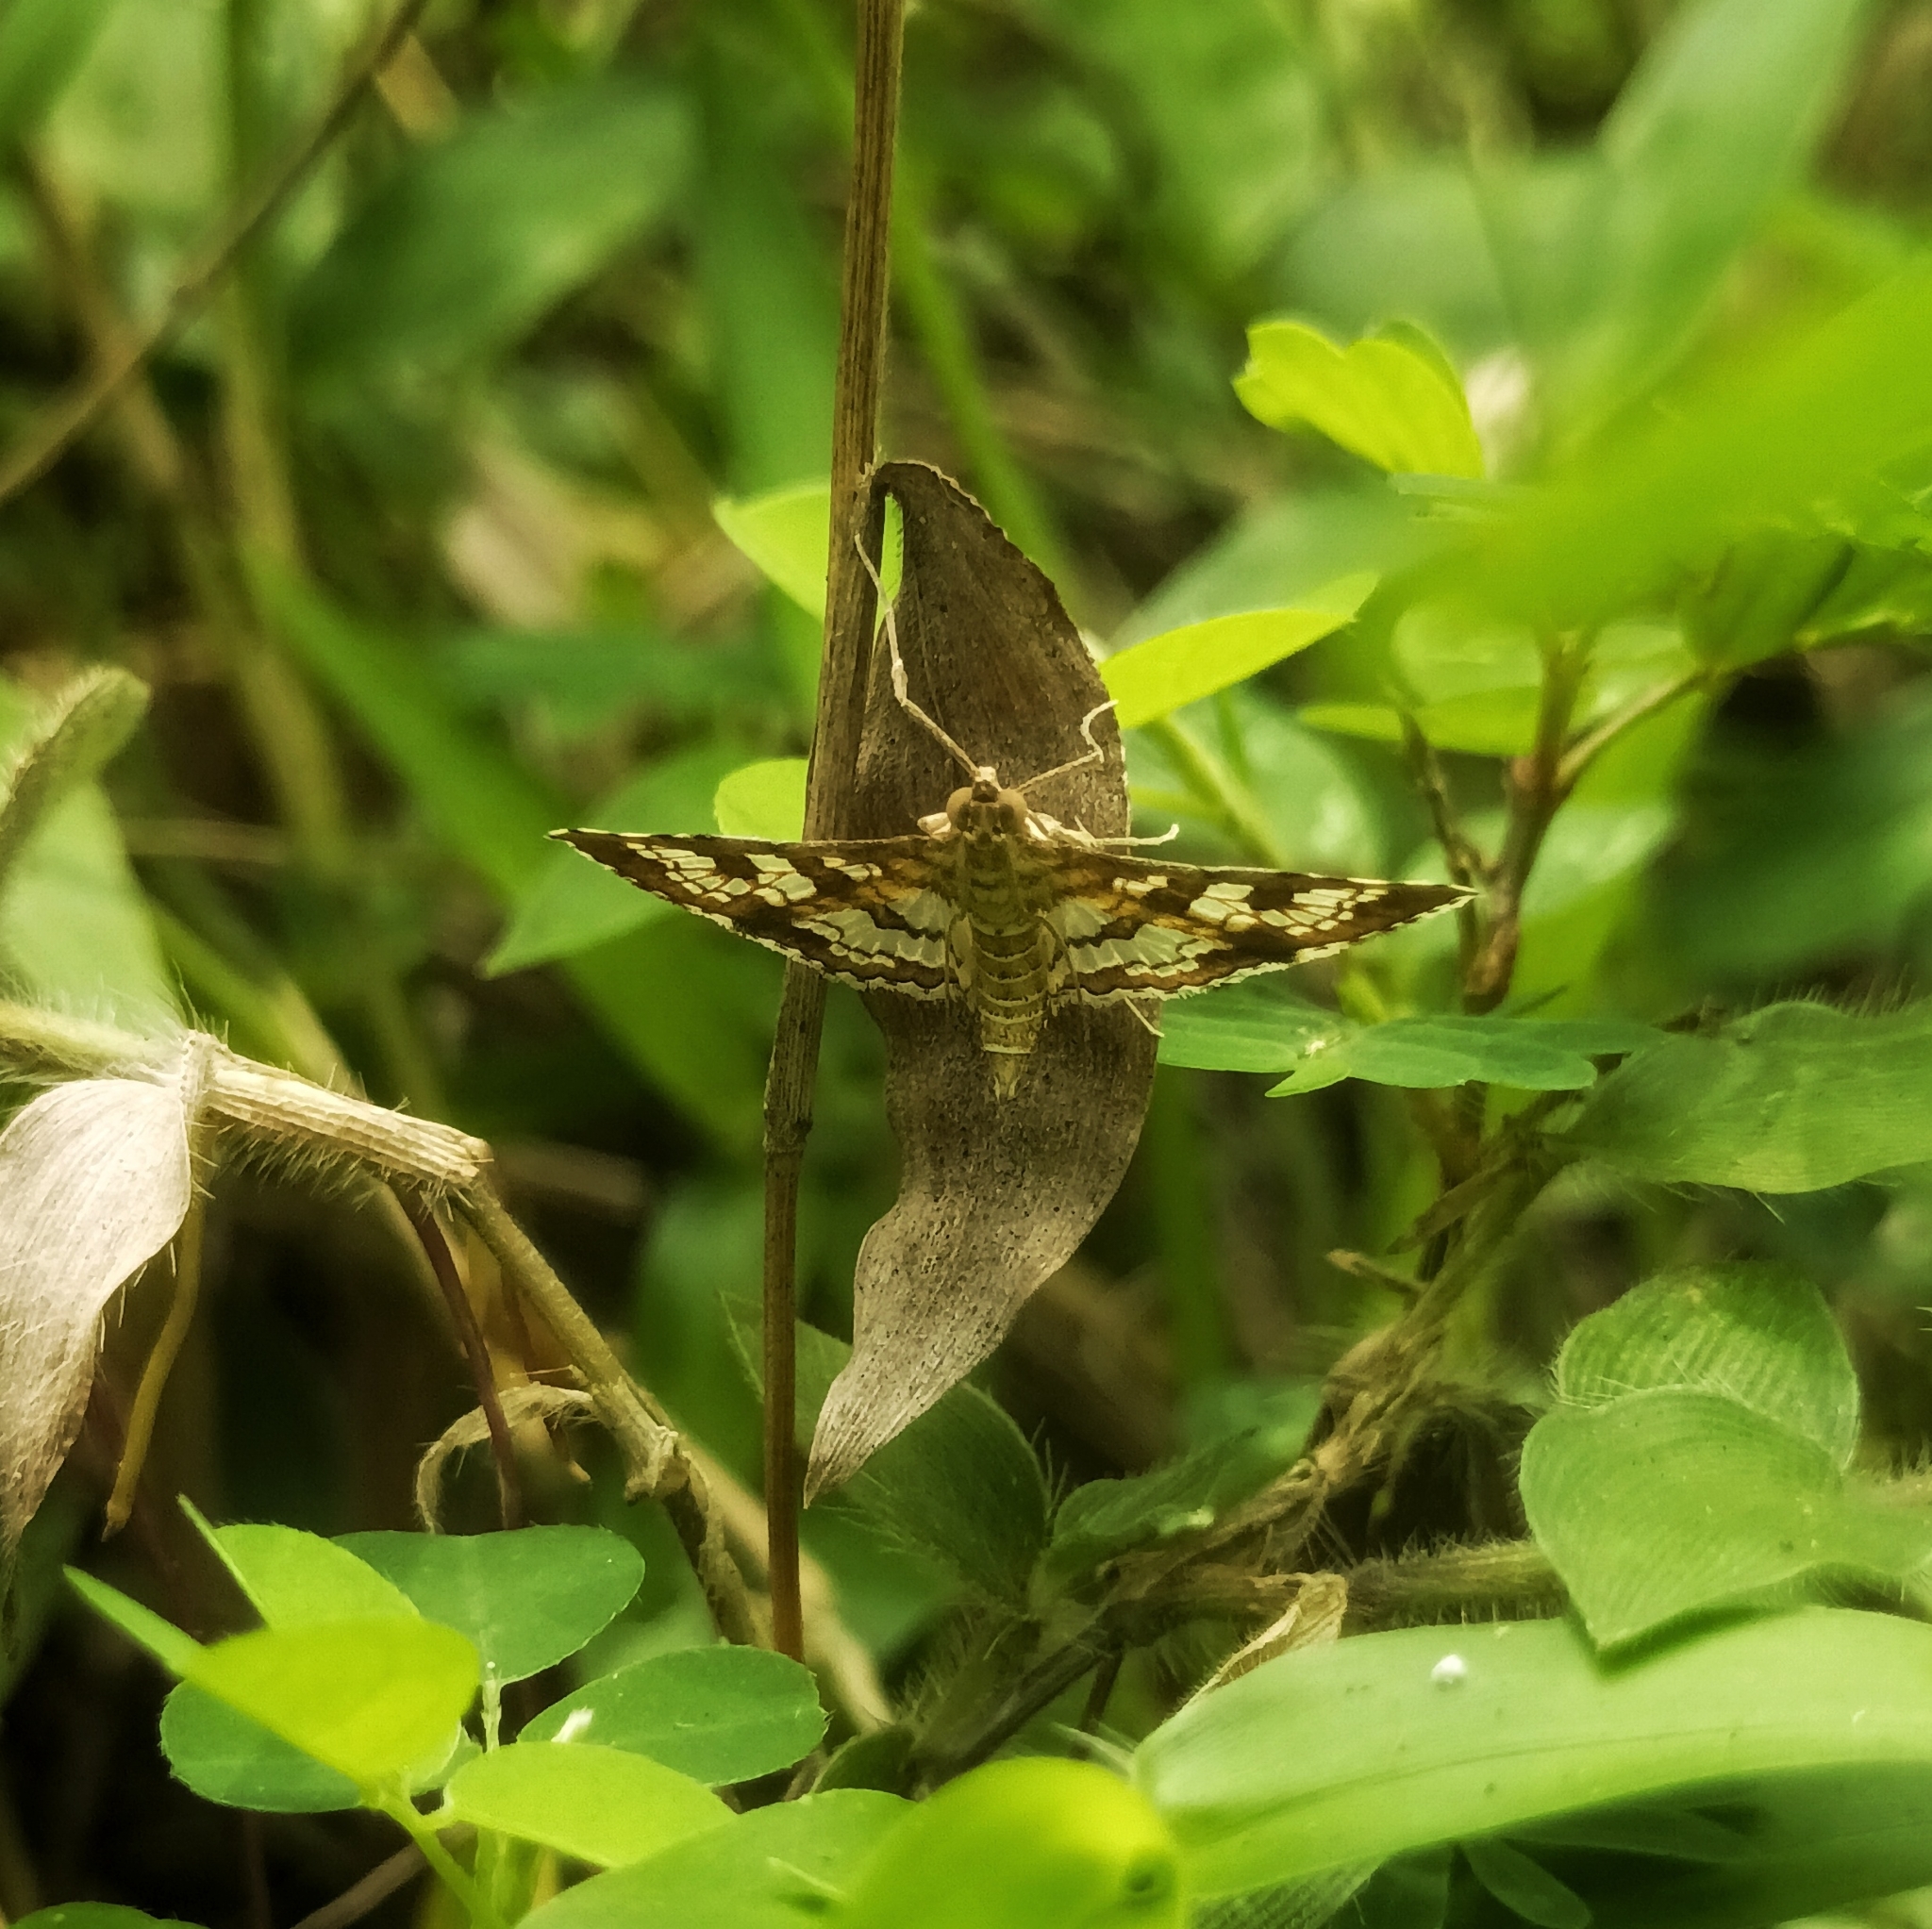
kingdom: Animalia
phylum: Arthropoda
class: Insecta
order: Lepidoptera
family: Crambidae
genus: Sameodes
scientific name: Sameodes cancellalis
